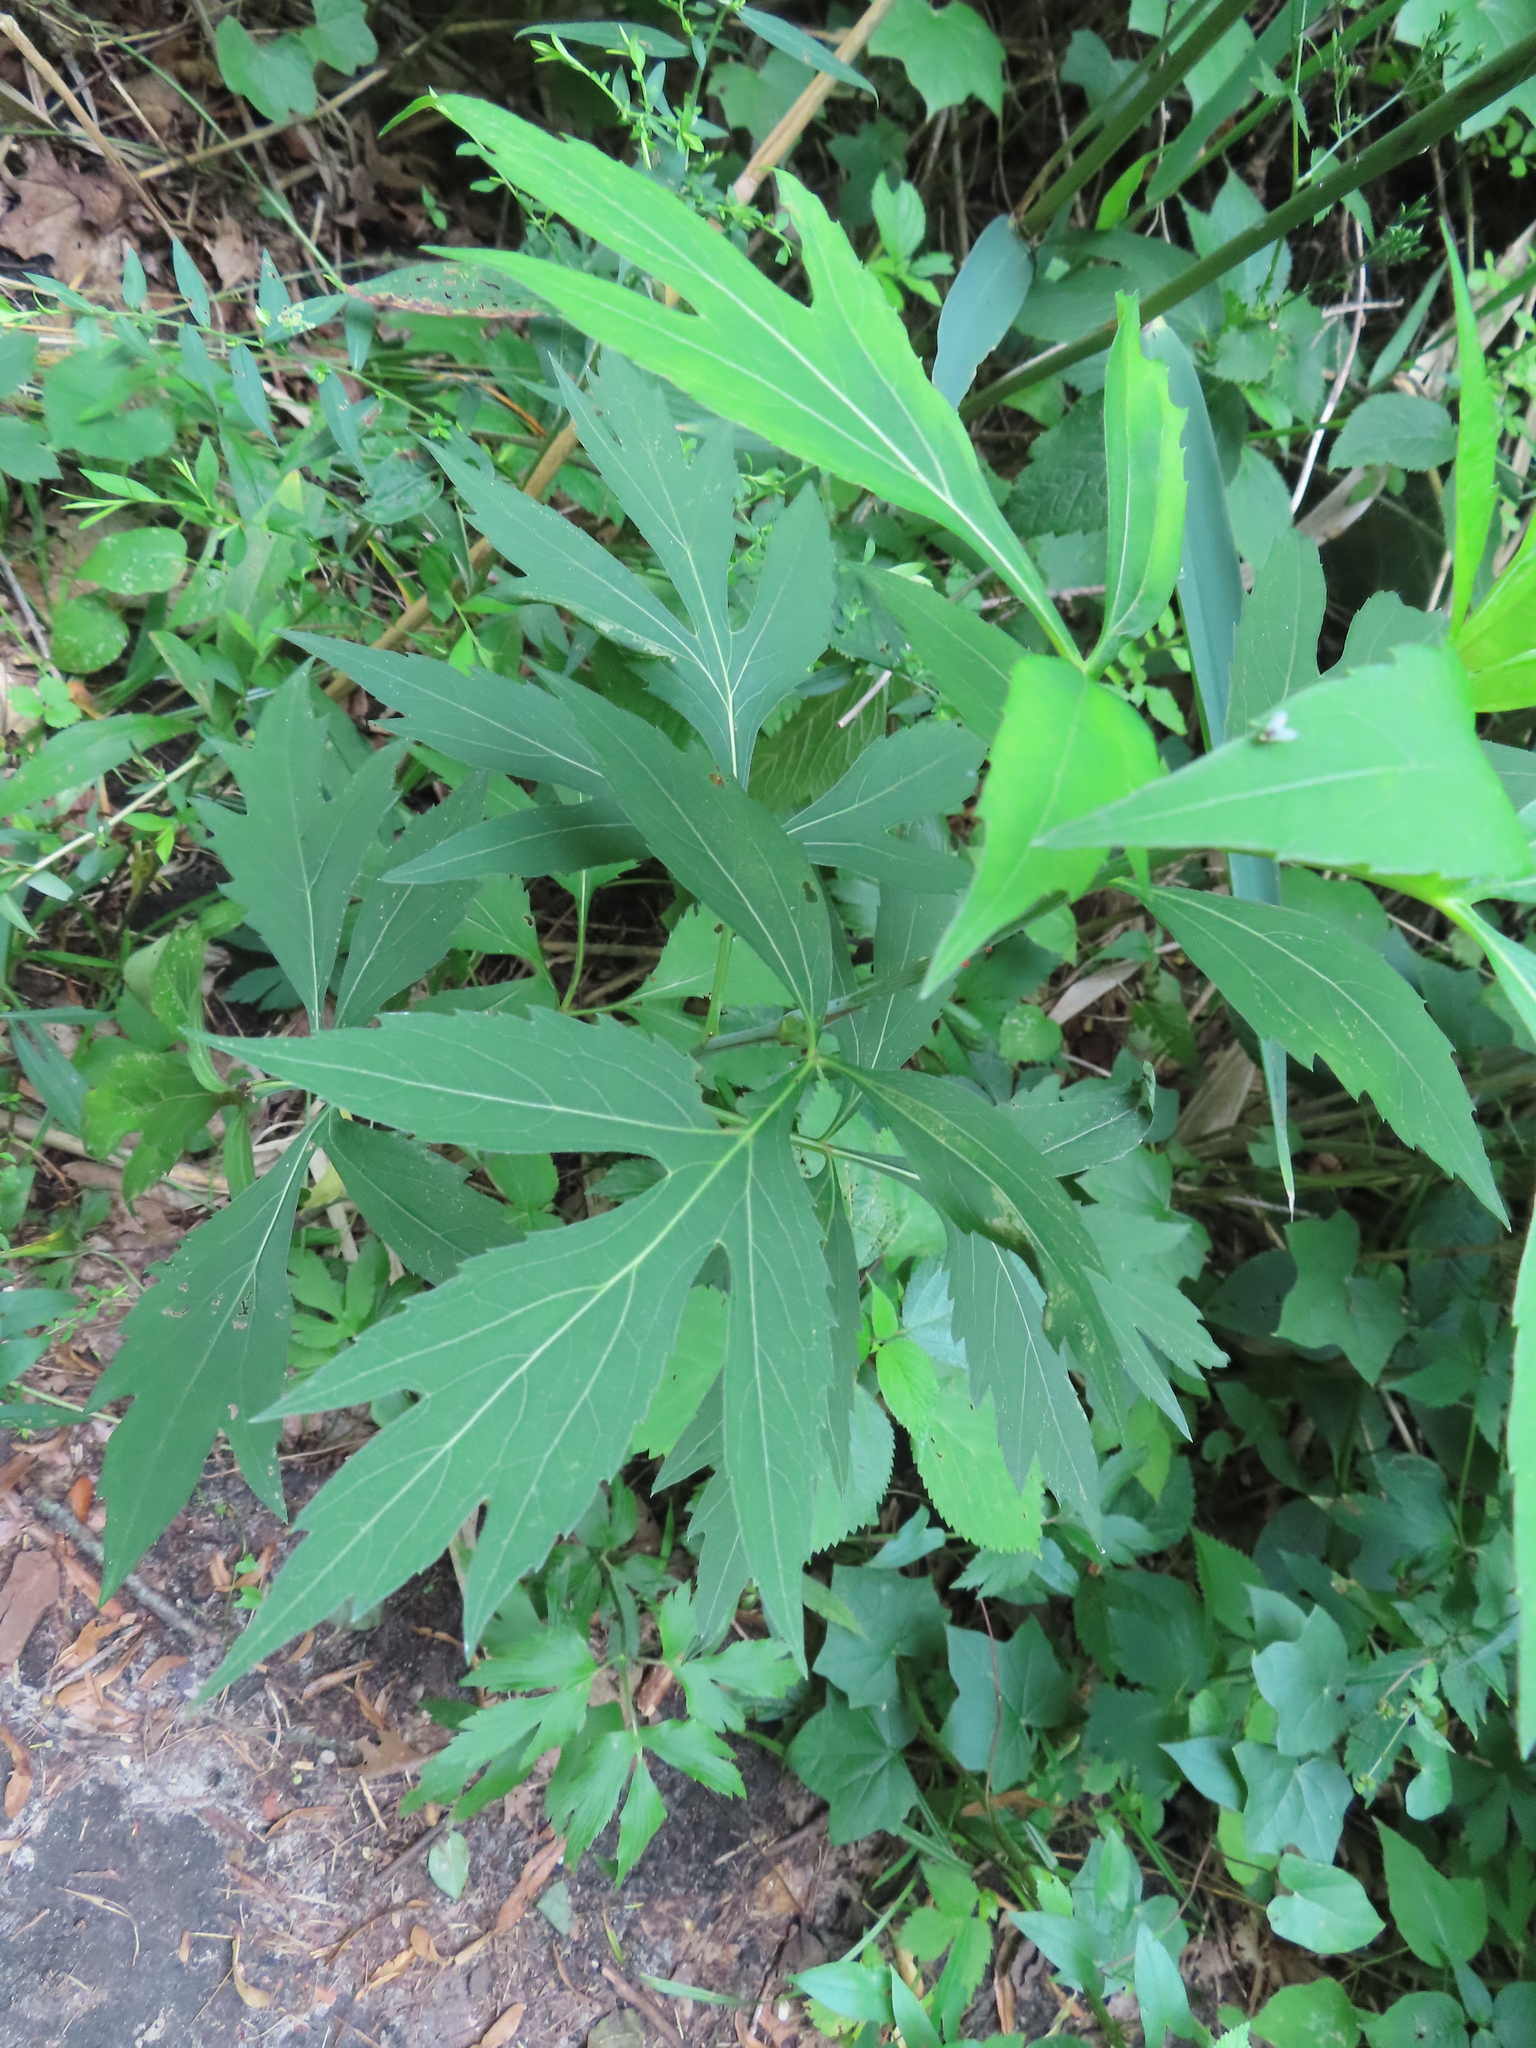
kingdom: Plantae
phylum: Tracheophyta
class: Magnoliopsida
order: Asterales
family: Asteraceae
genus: Rudbeckia
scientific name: Rudbeckia laciniata
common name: Coneflower
